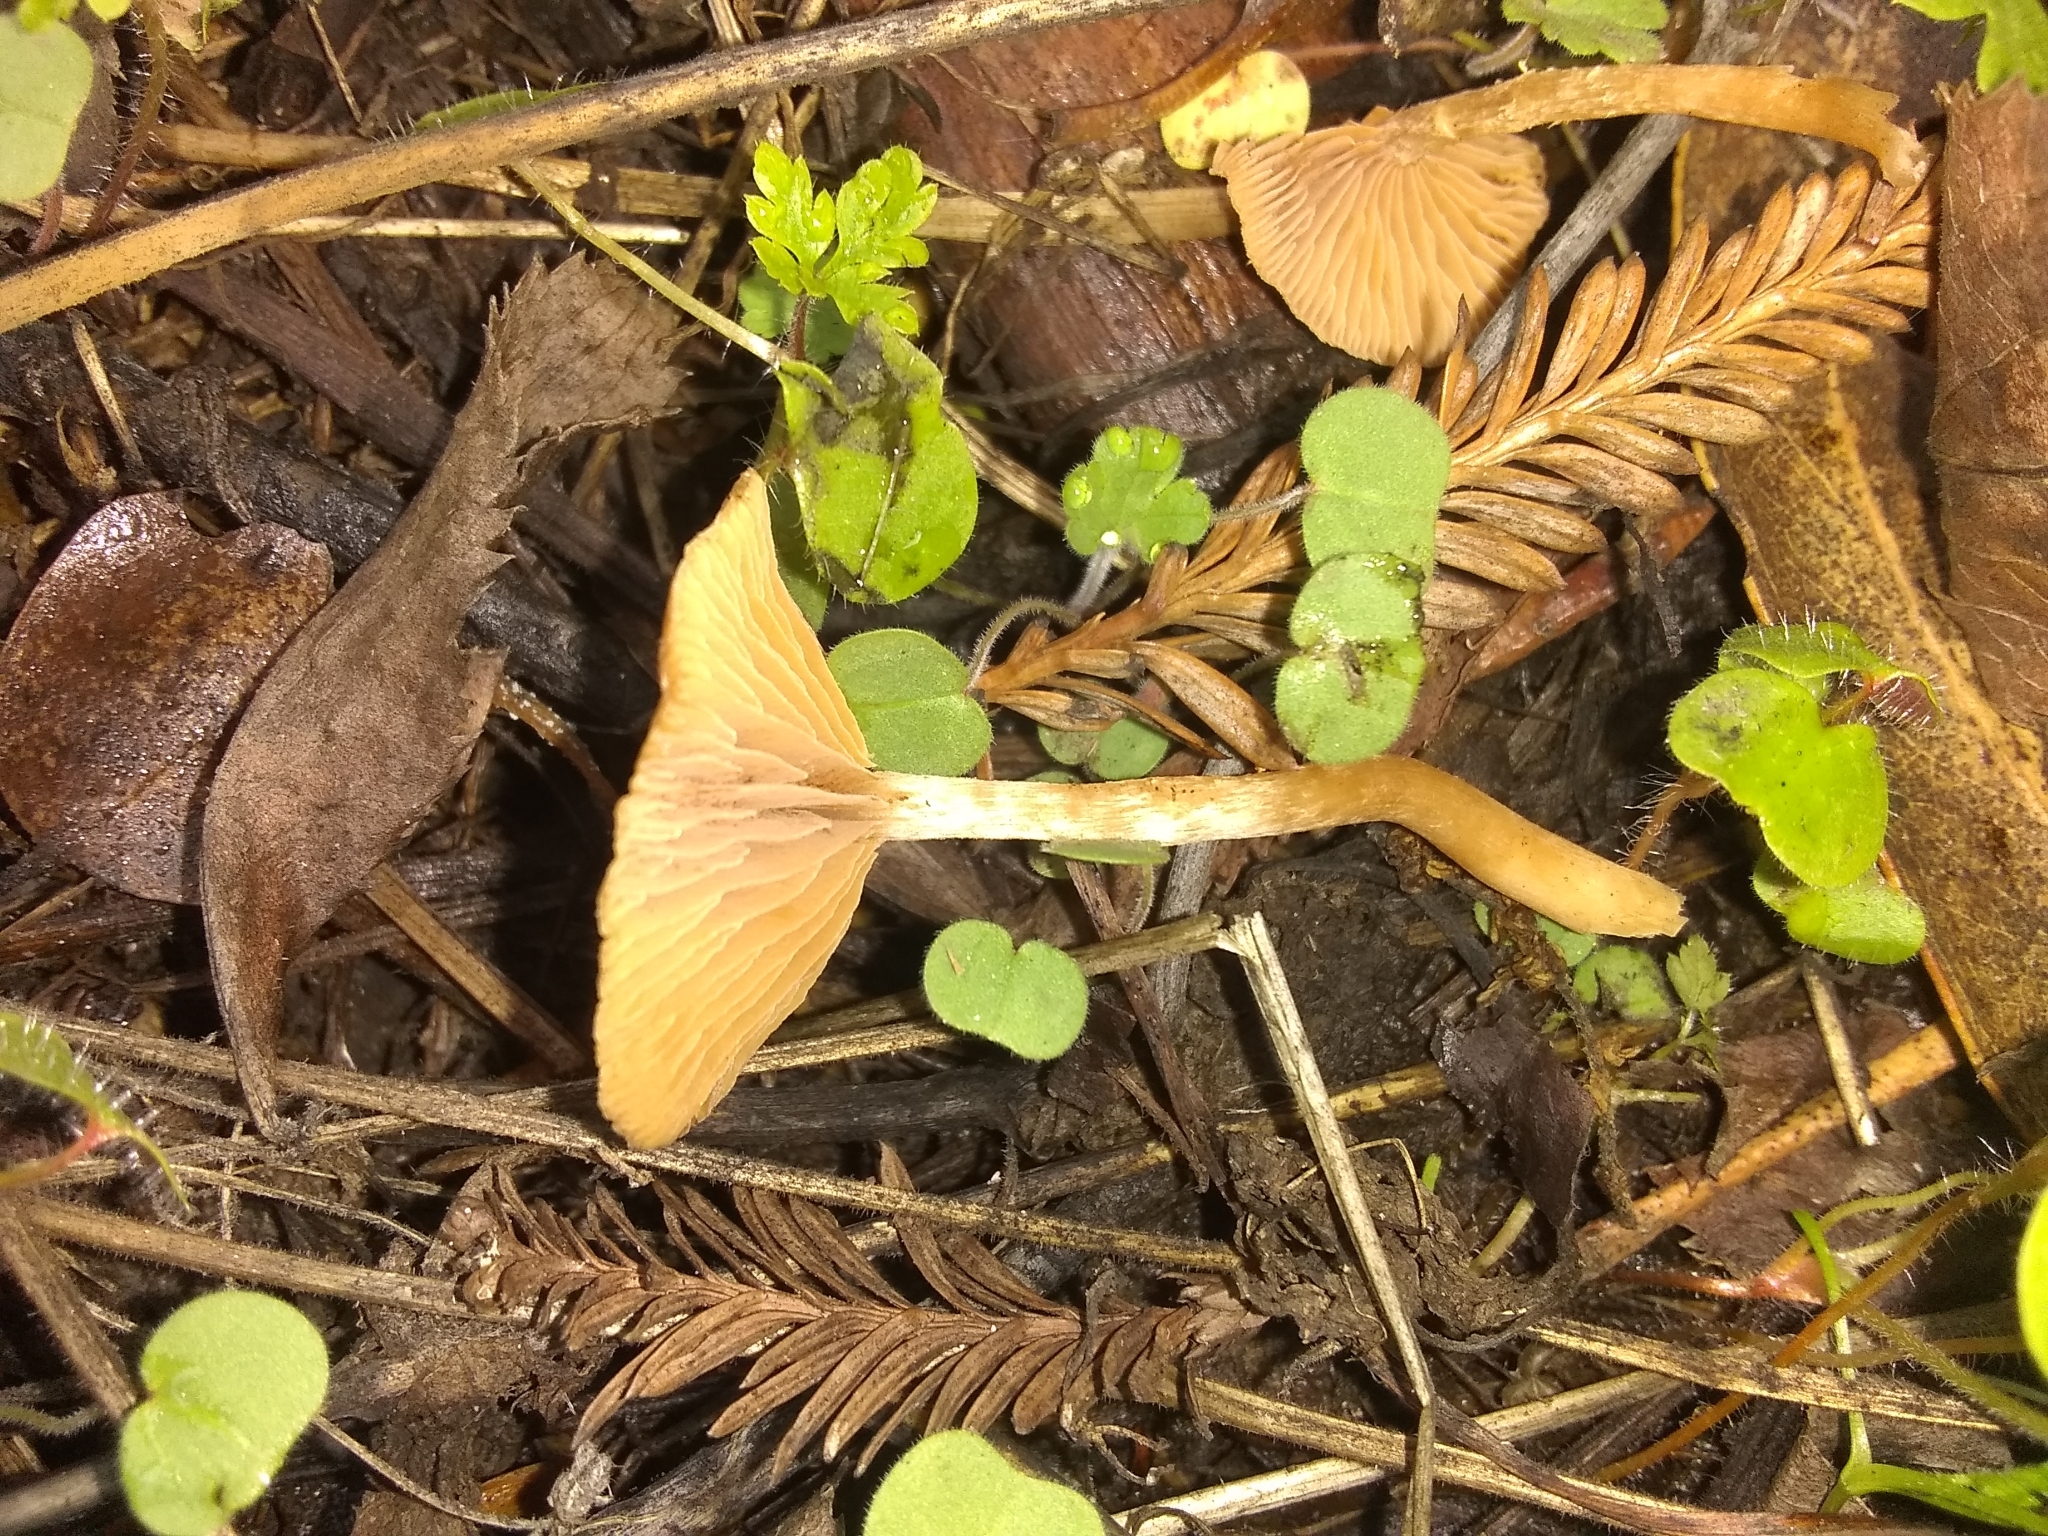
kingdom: Fungi
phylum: Basidiomycota
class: Agaricomycetes
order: Agaricales
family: Tubariaceae
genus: Tubaria
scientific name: Tubaria furfuracea
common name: Scurfy twiglet
